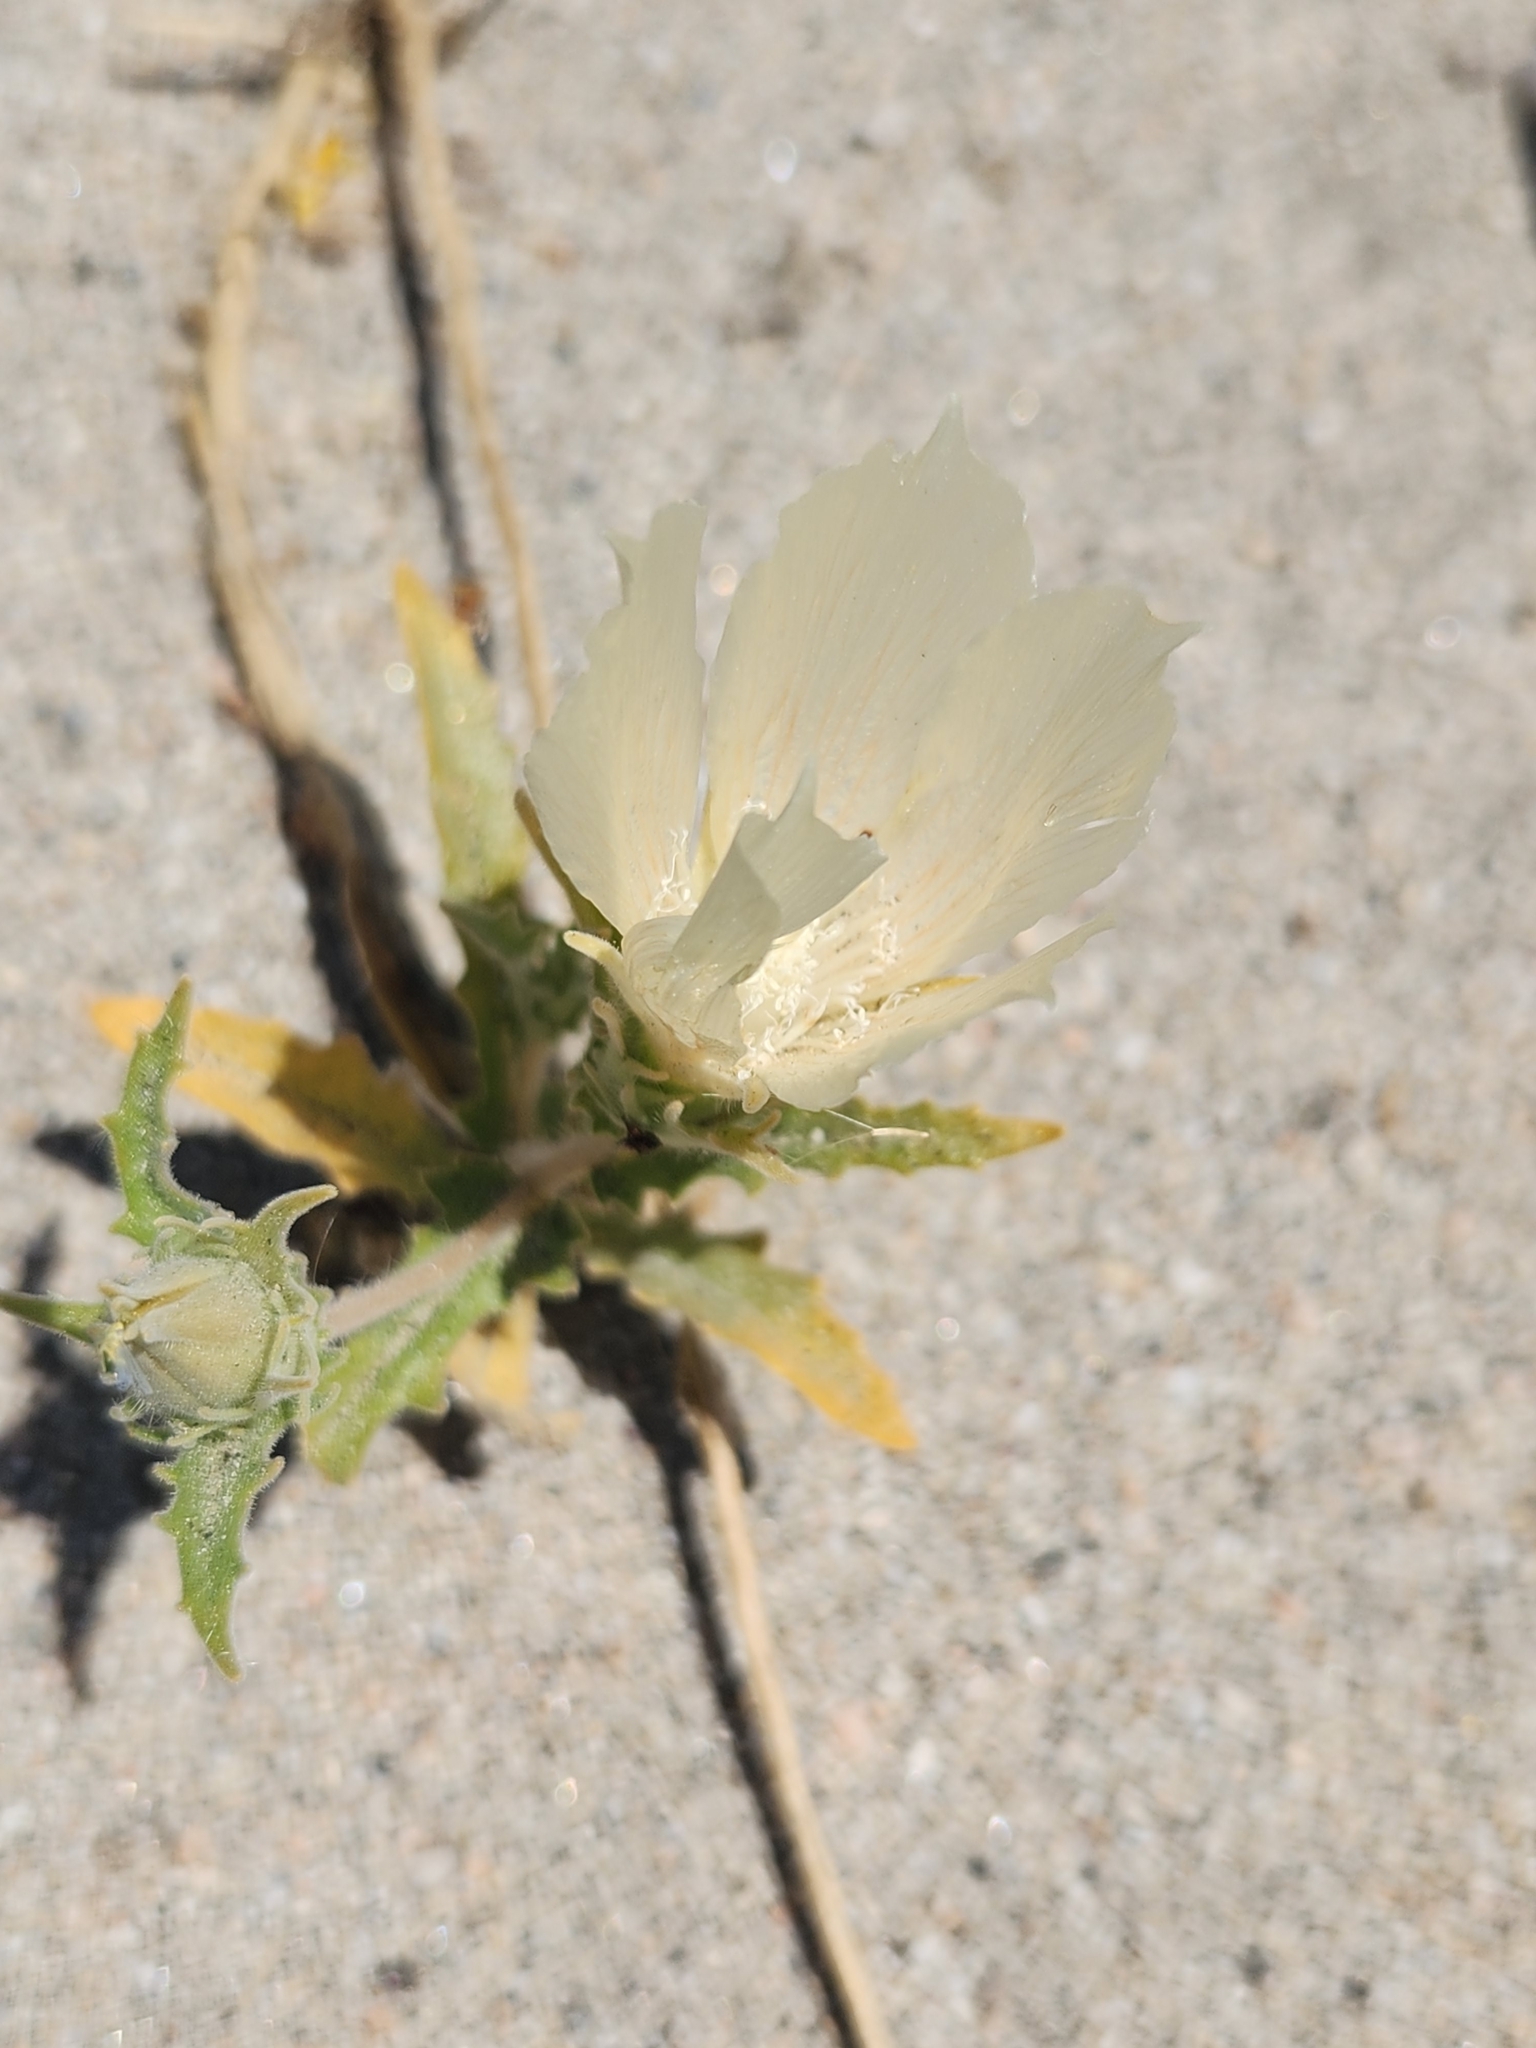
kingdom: Plantae
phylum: Tracheophyta
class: Magnoliopsida
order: Cornales
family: Loasaceae
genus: Mentzelia
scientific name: Mentzelia involucrata
